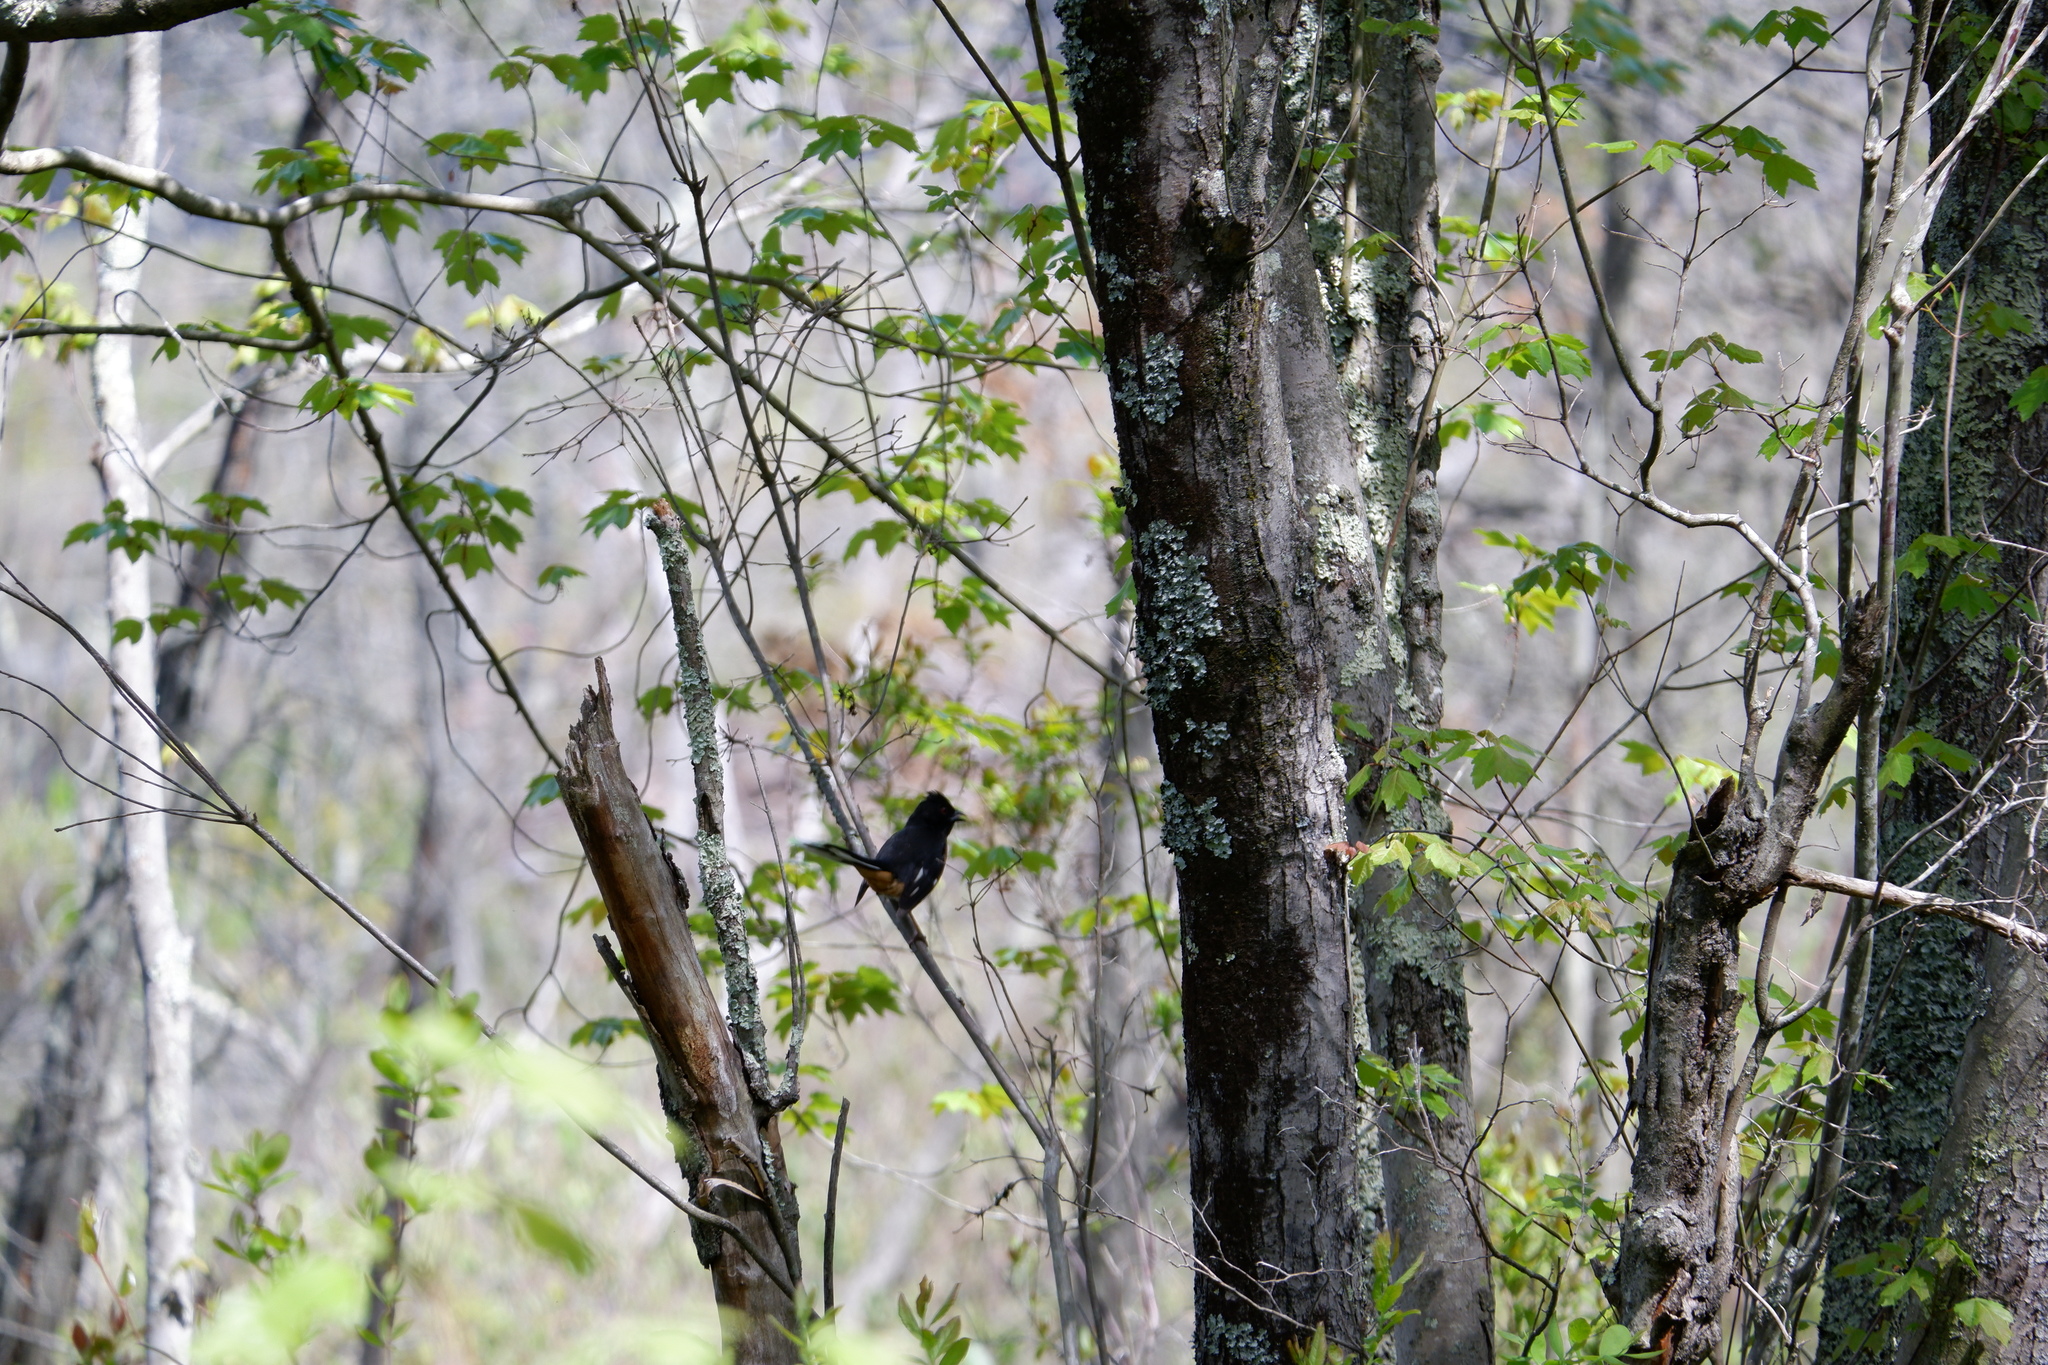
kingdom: Animalia
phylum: Chordata
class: Aves
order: Passeriformes
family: Passerellidae
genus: Pipilo
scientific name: Pipilo erythrophthalmus
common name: Eastern towhee
